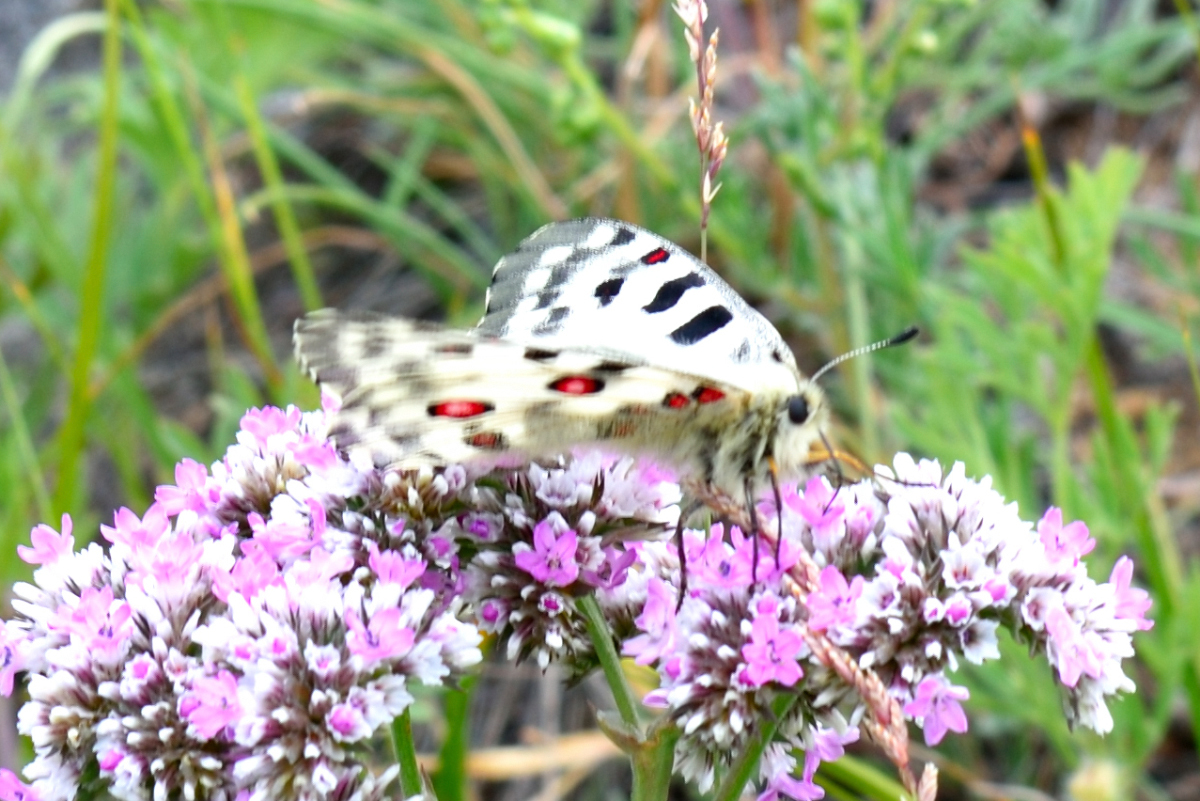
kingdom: Animalia
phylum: Arthropoda
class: Insecta
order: Lepidoptera
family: Papilionidae
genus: Parnassius
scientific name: Parnassius nomion
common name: Nomion apollo
